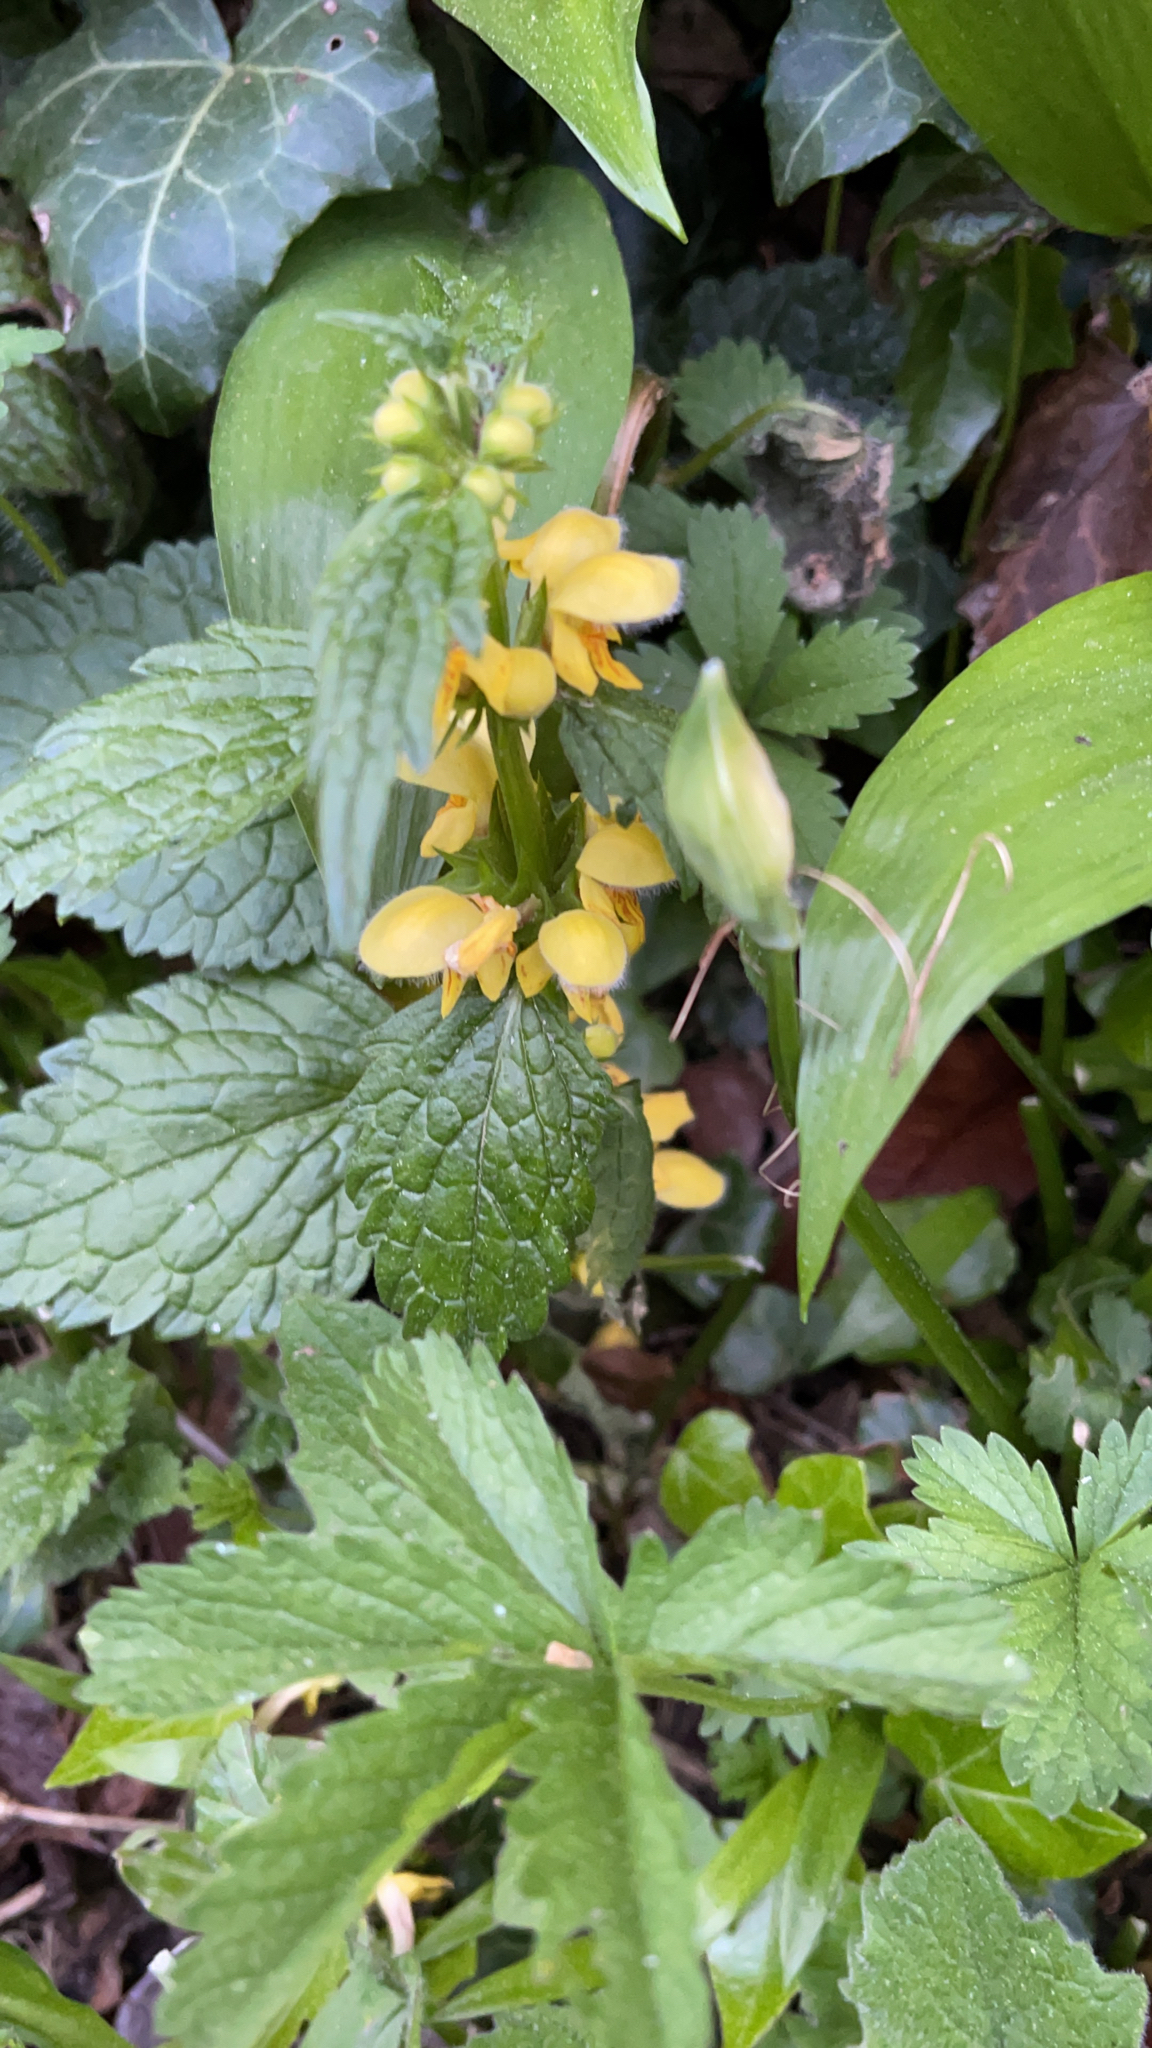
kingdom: Plantae
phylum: Tracheophyta
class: Magnoliopsida
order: Lamiales
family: Lamiaceae
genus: Lamium
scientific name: Lamium galeobdolon
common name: Yellow archangel
